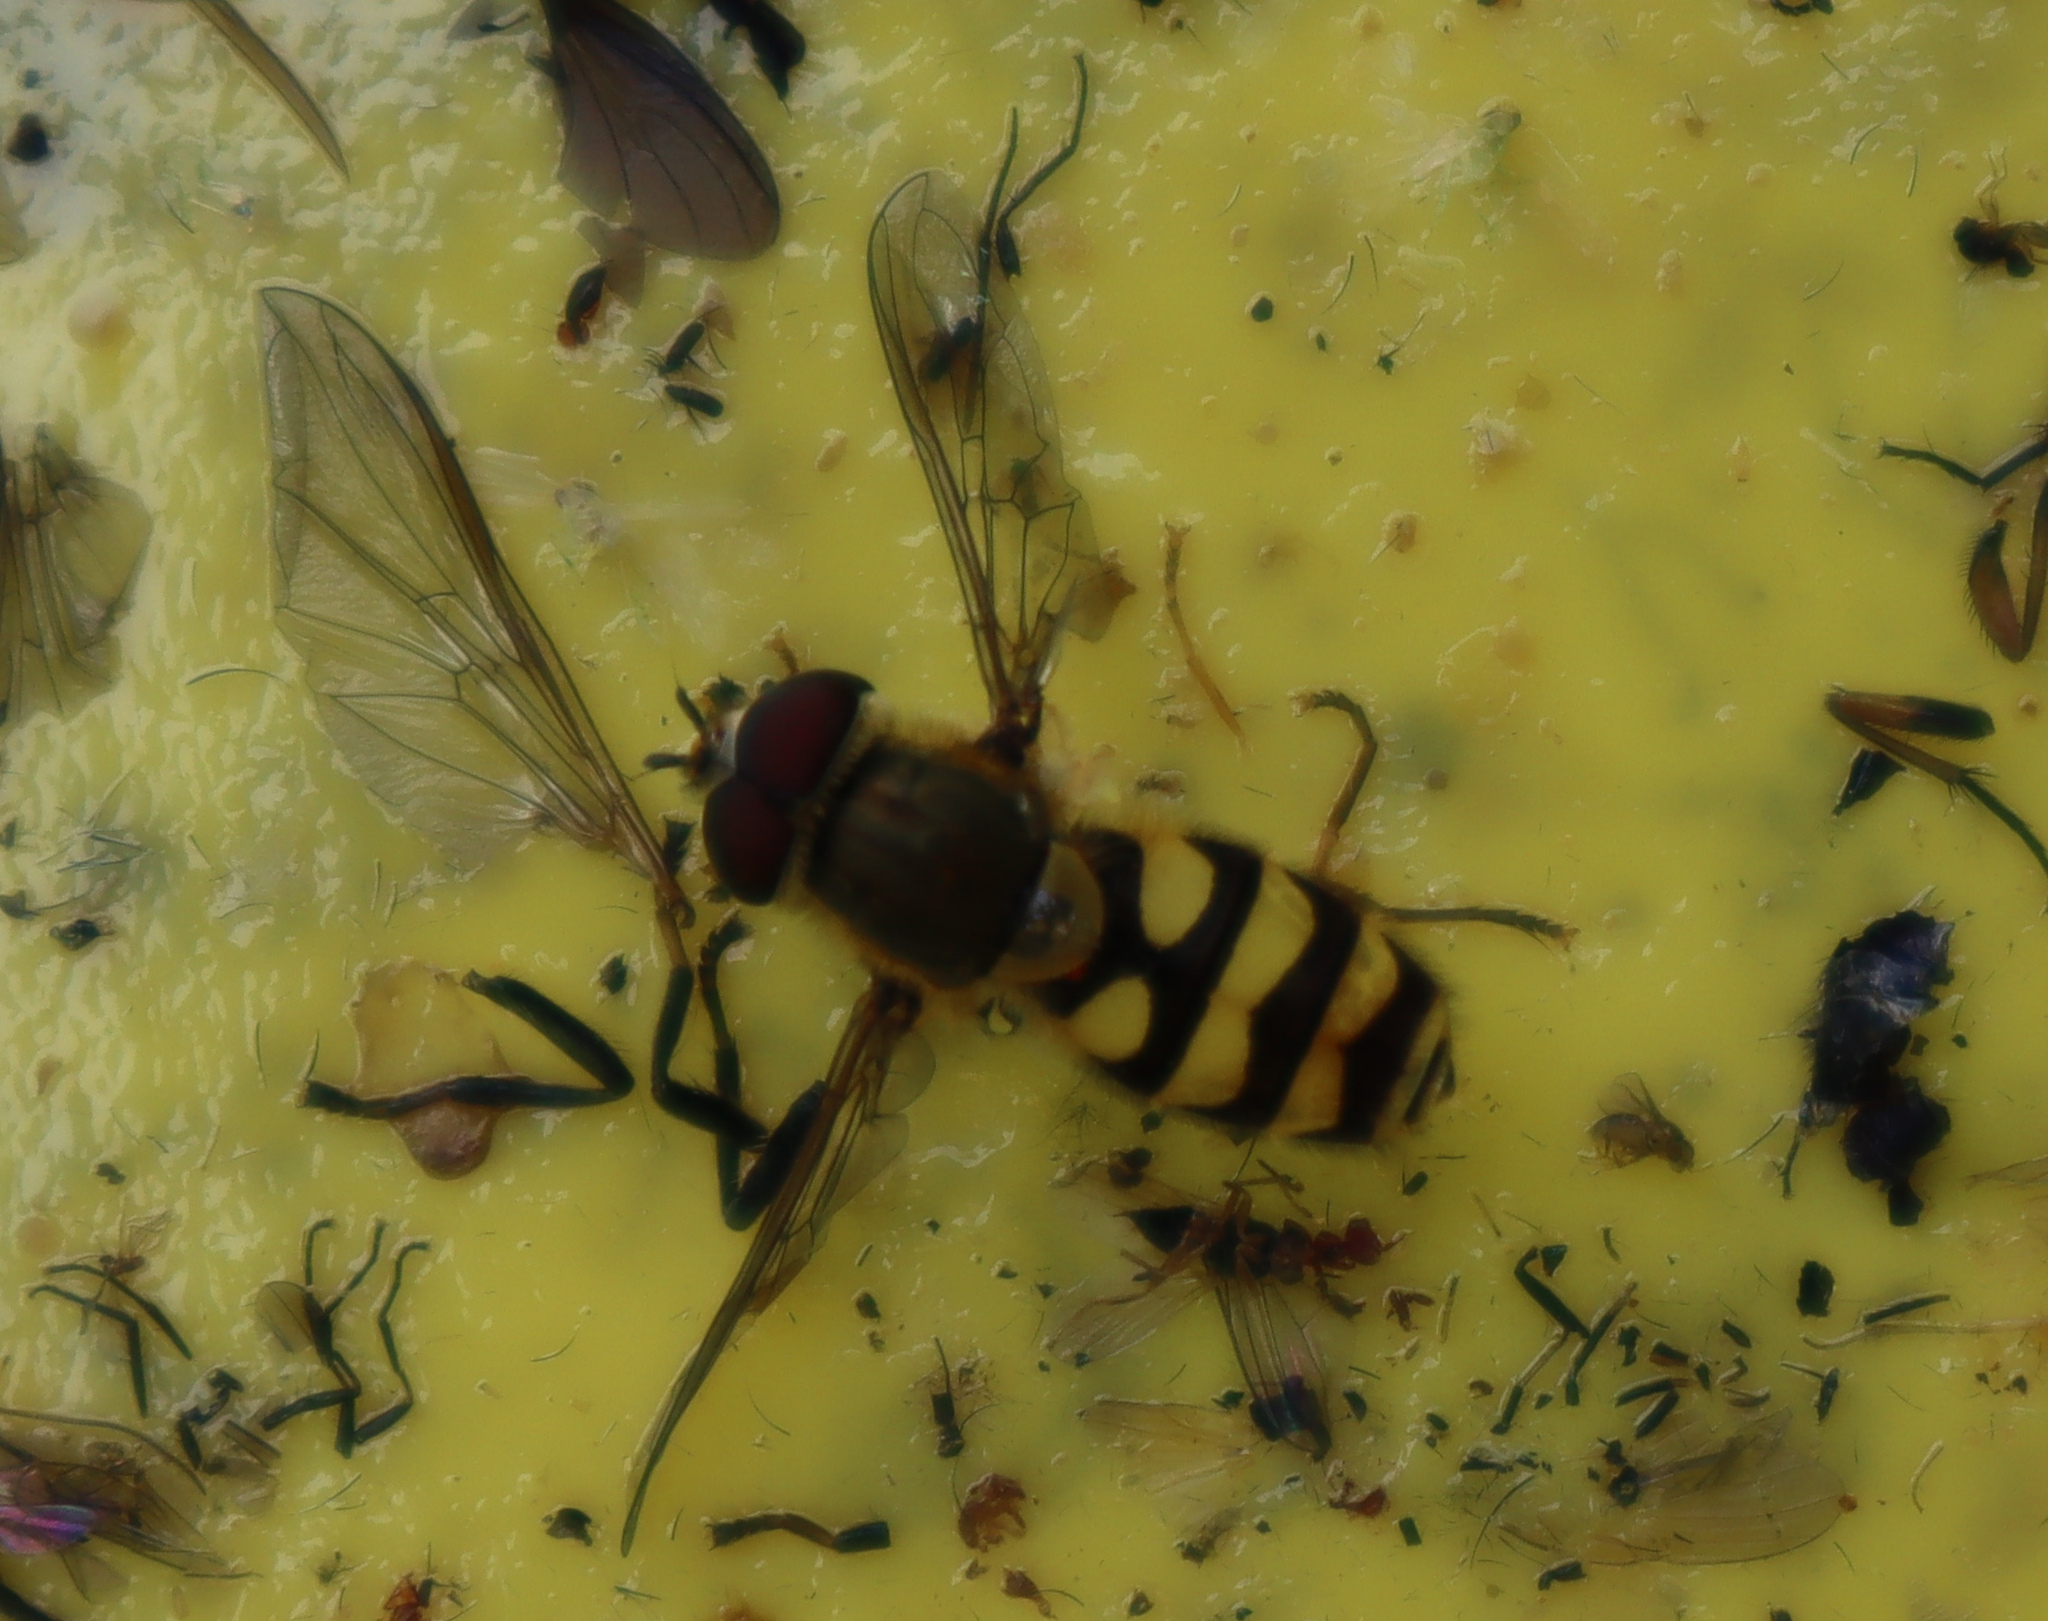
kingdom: Animalia
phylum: Arthropoda
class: Insecta
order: Diptera
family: Syrphidae
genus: Syrphus
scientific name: Syrphus
